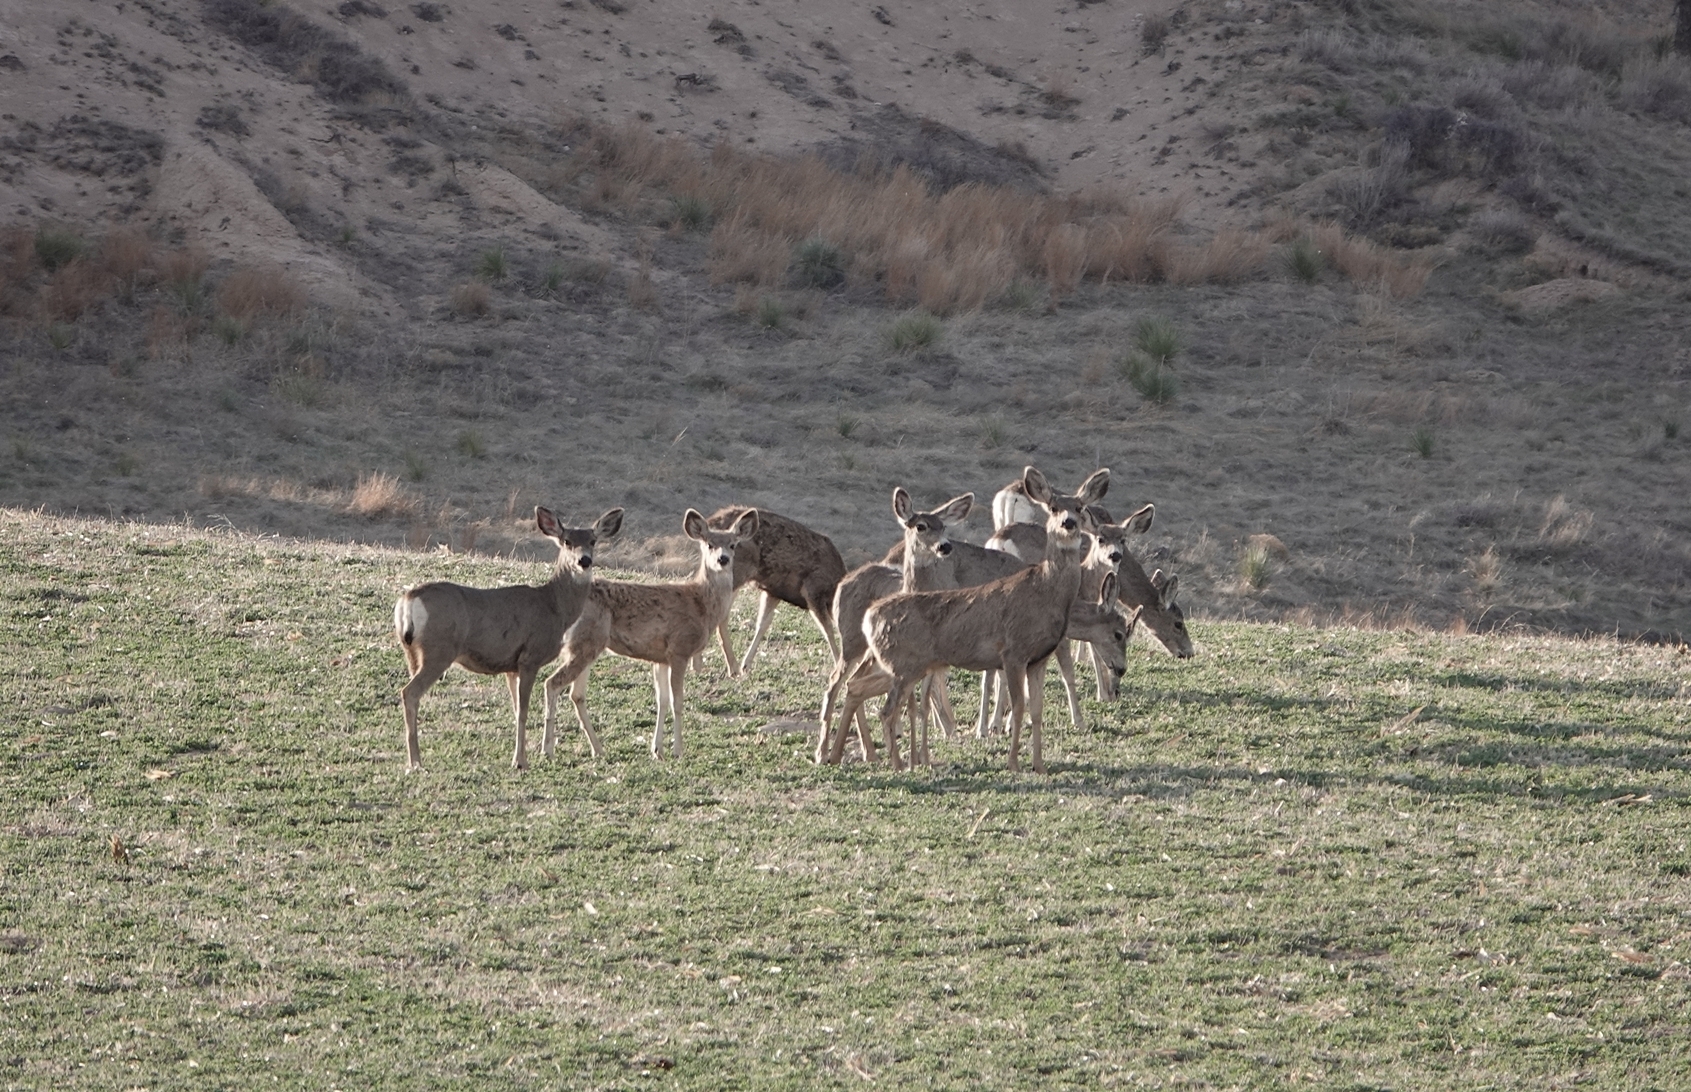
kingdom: Animalia
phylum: Chordata
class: Mammalia
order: Artiodactyla
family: Cervidae
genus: Odocoileus
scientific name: Odocoileus hemionus
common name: Mule deer
